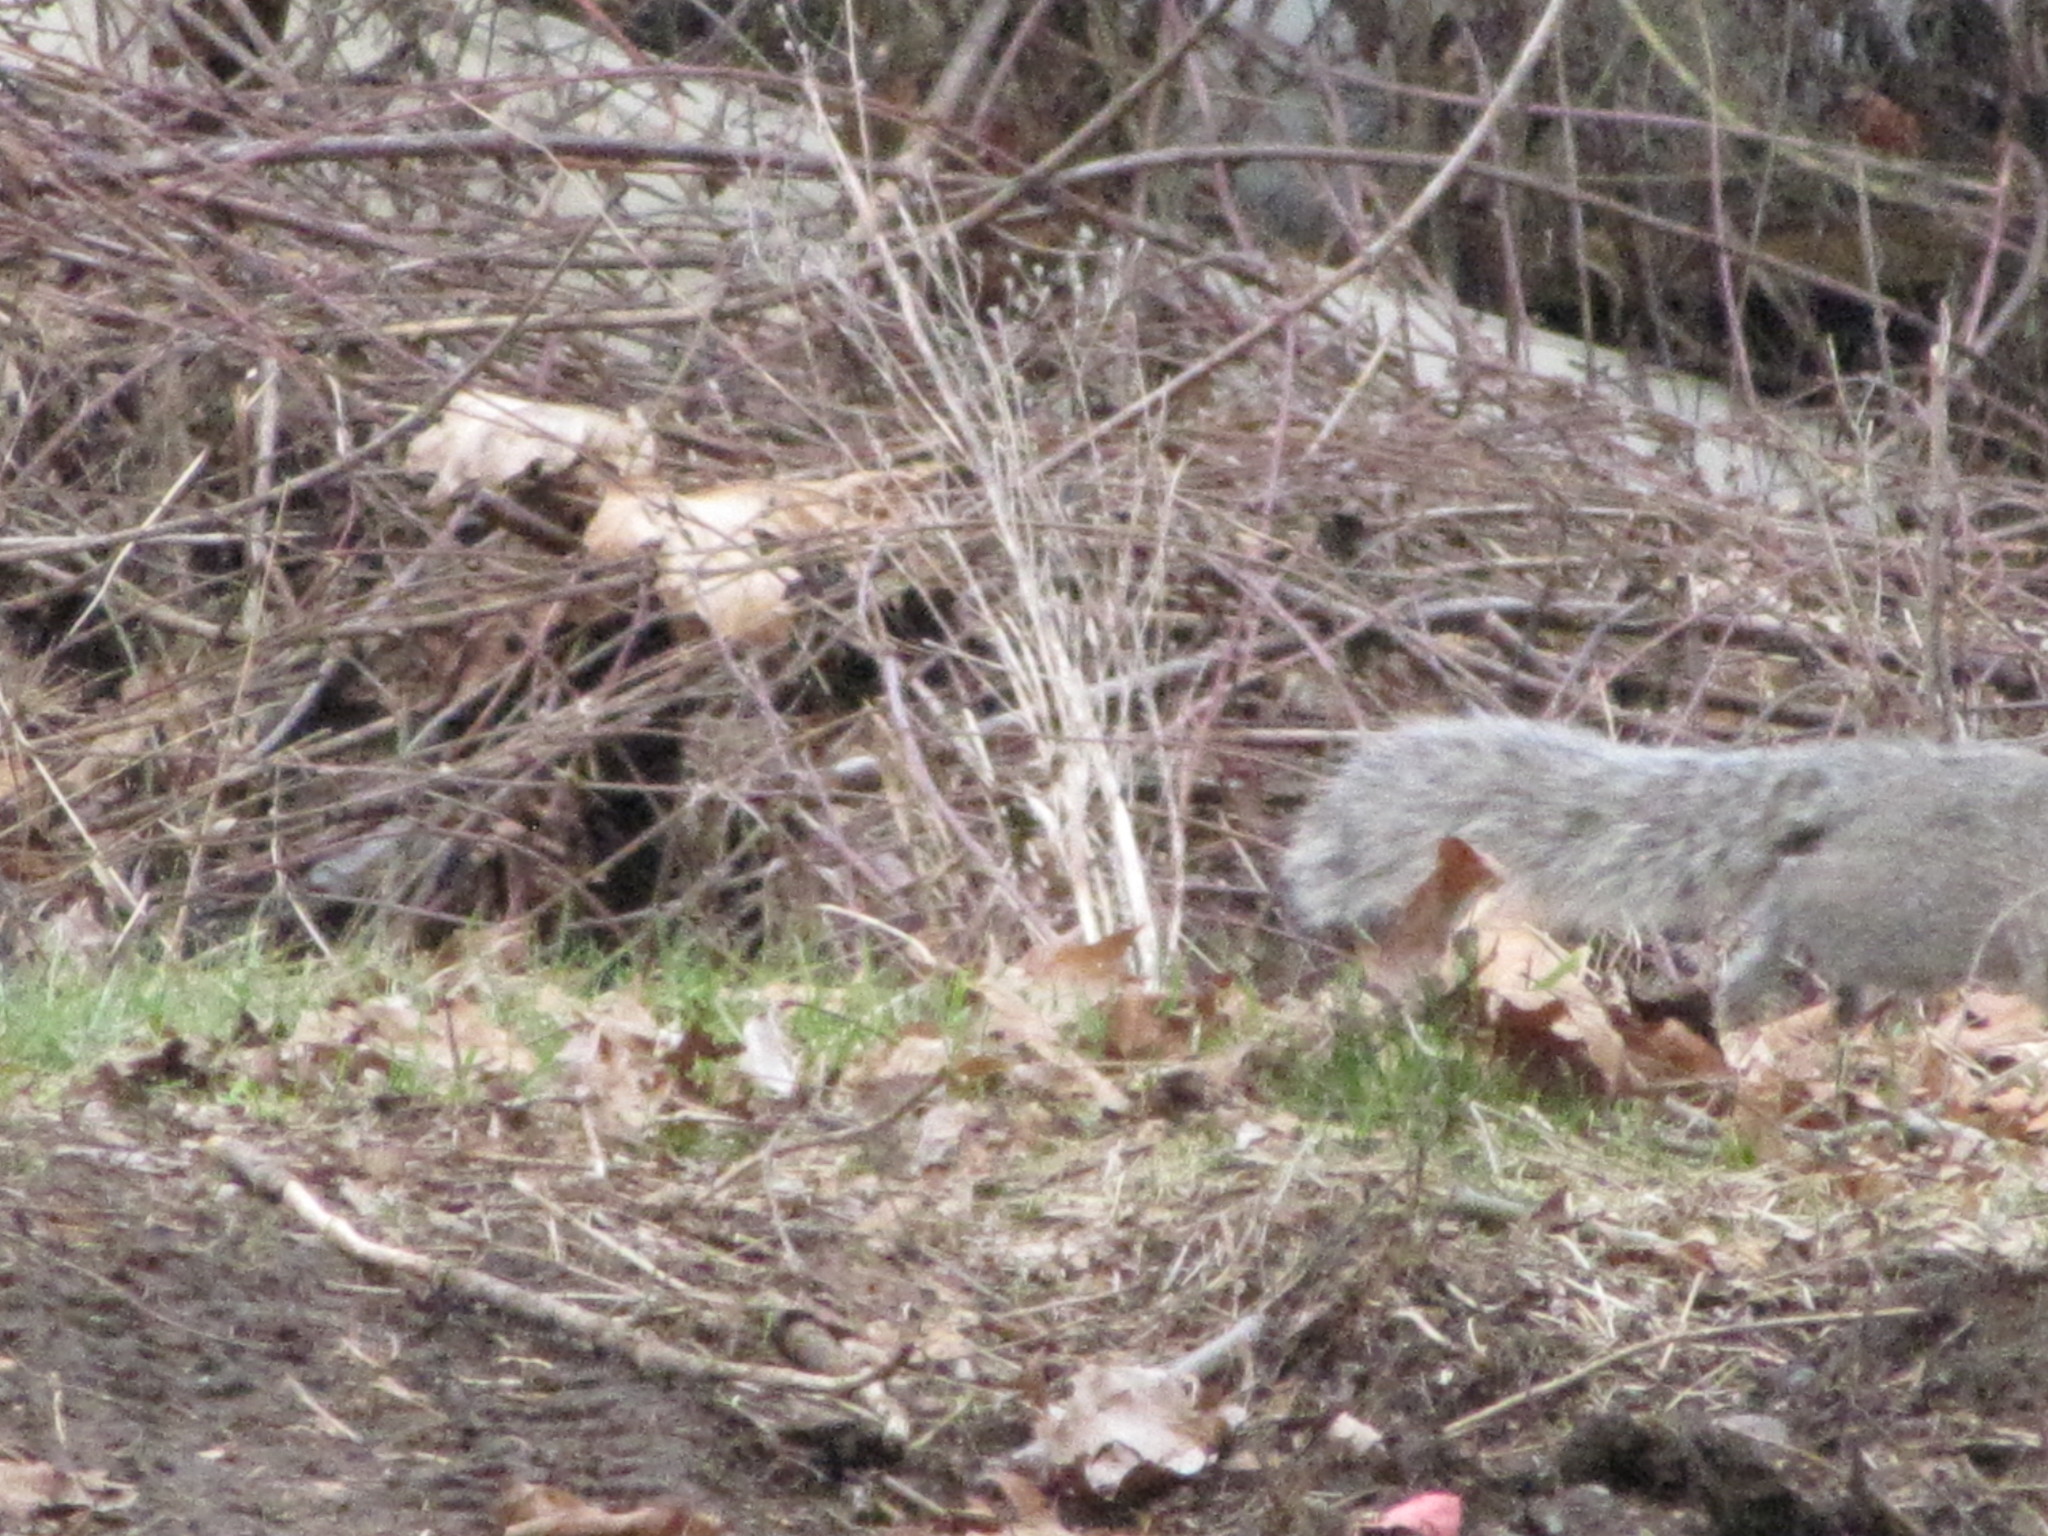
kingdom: Animalia
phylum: Chordata
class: Mammalia
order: Rodentia
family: Sciuridae
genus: Sciurus
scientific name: Sciurus carolinensis
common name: Eastern gray squirrel
